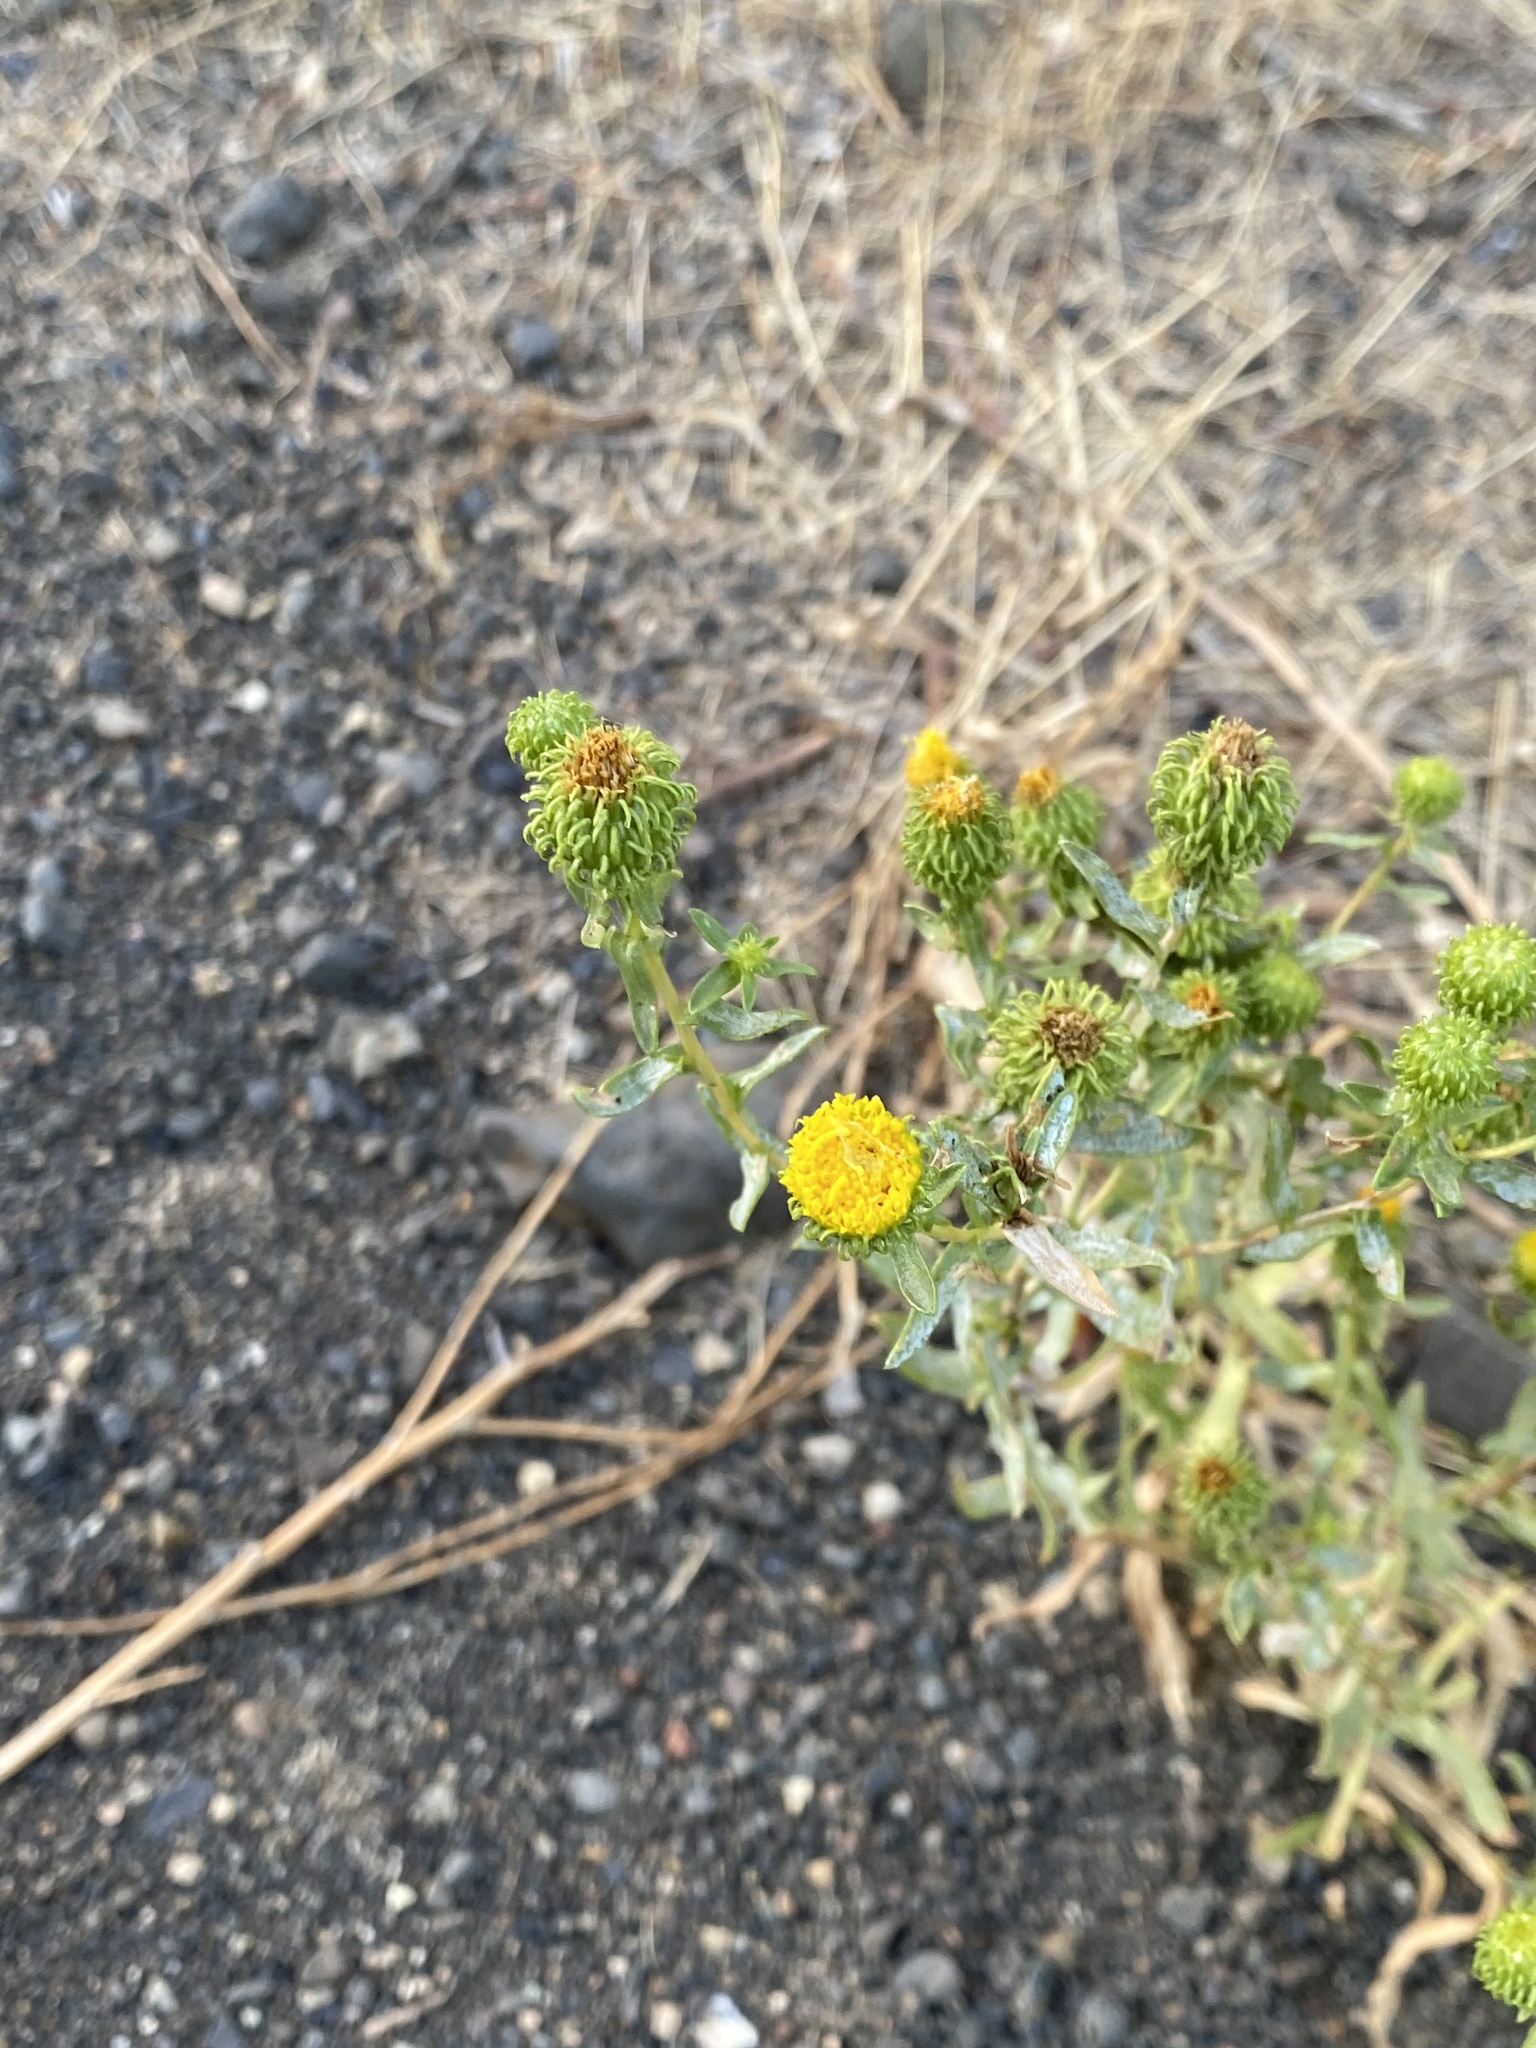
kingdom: Plantae
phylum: Tracheophyta
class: Magnoliopsida
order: Asterales
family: Asteraceae
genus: Grindelia
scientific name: Grindelia hirsutula
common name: Hairy gumweed
